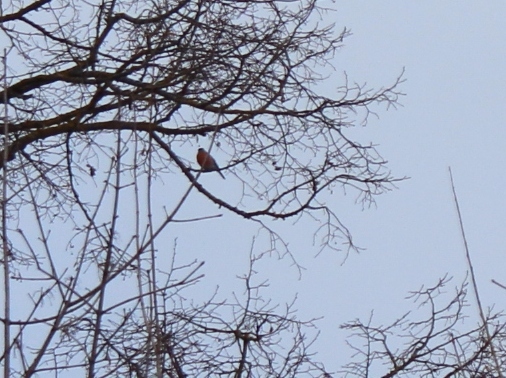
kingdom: Animalia
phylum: Chordata
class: Aves
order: Passeriformes
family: Fringillidae
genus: Pyrrhula
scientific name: Pyrrhula pyrrhula
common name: Eurasian bullfinch
